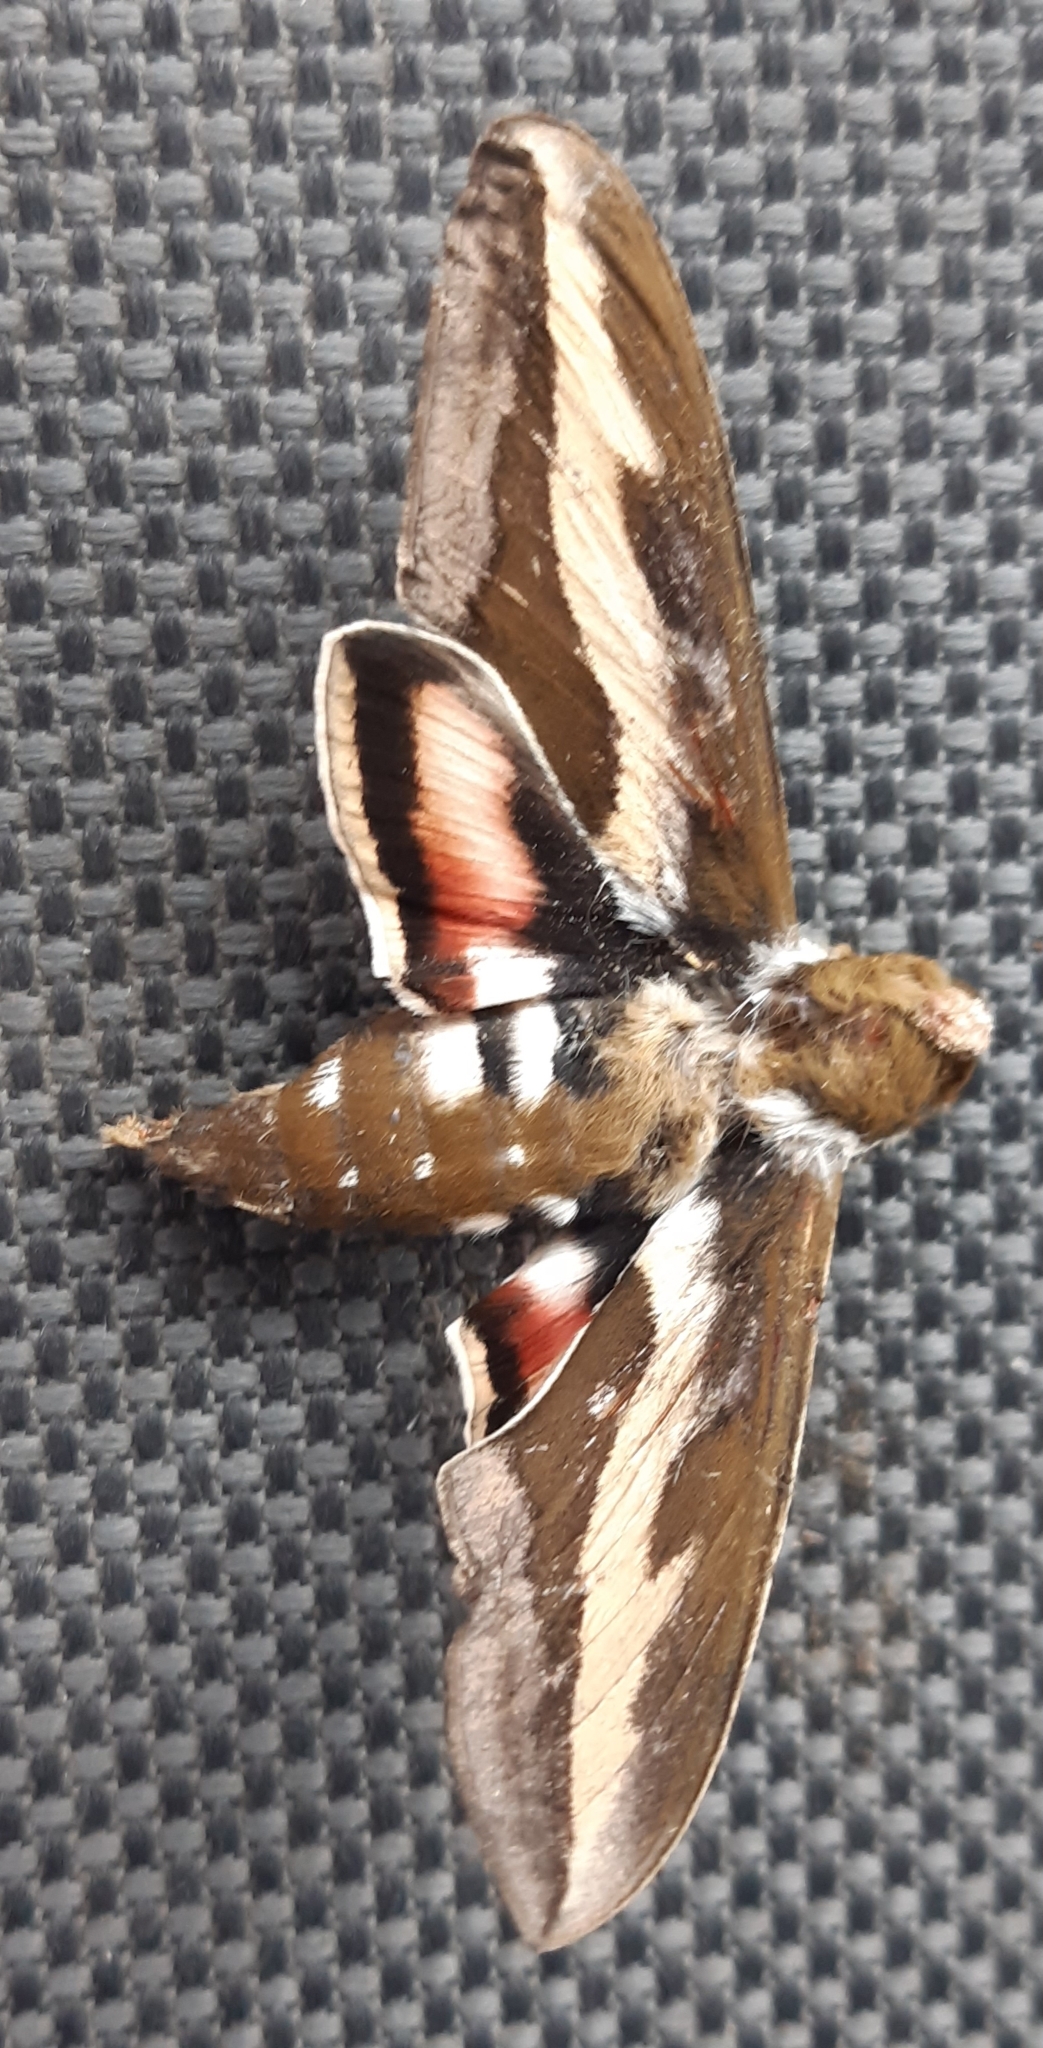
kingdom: Animalia
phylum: Arthropoda
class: Insecta
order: Lepidoptera
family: Sphingidae
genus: Hyles
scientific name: Hyles gallii
